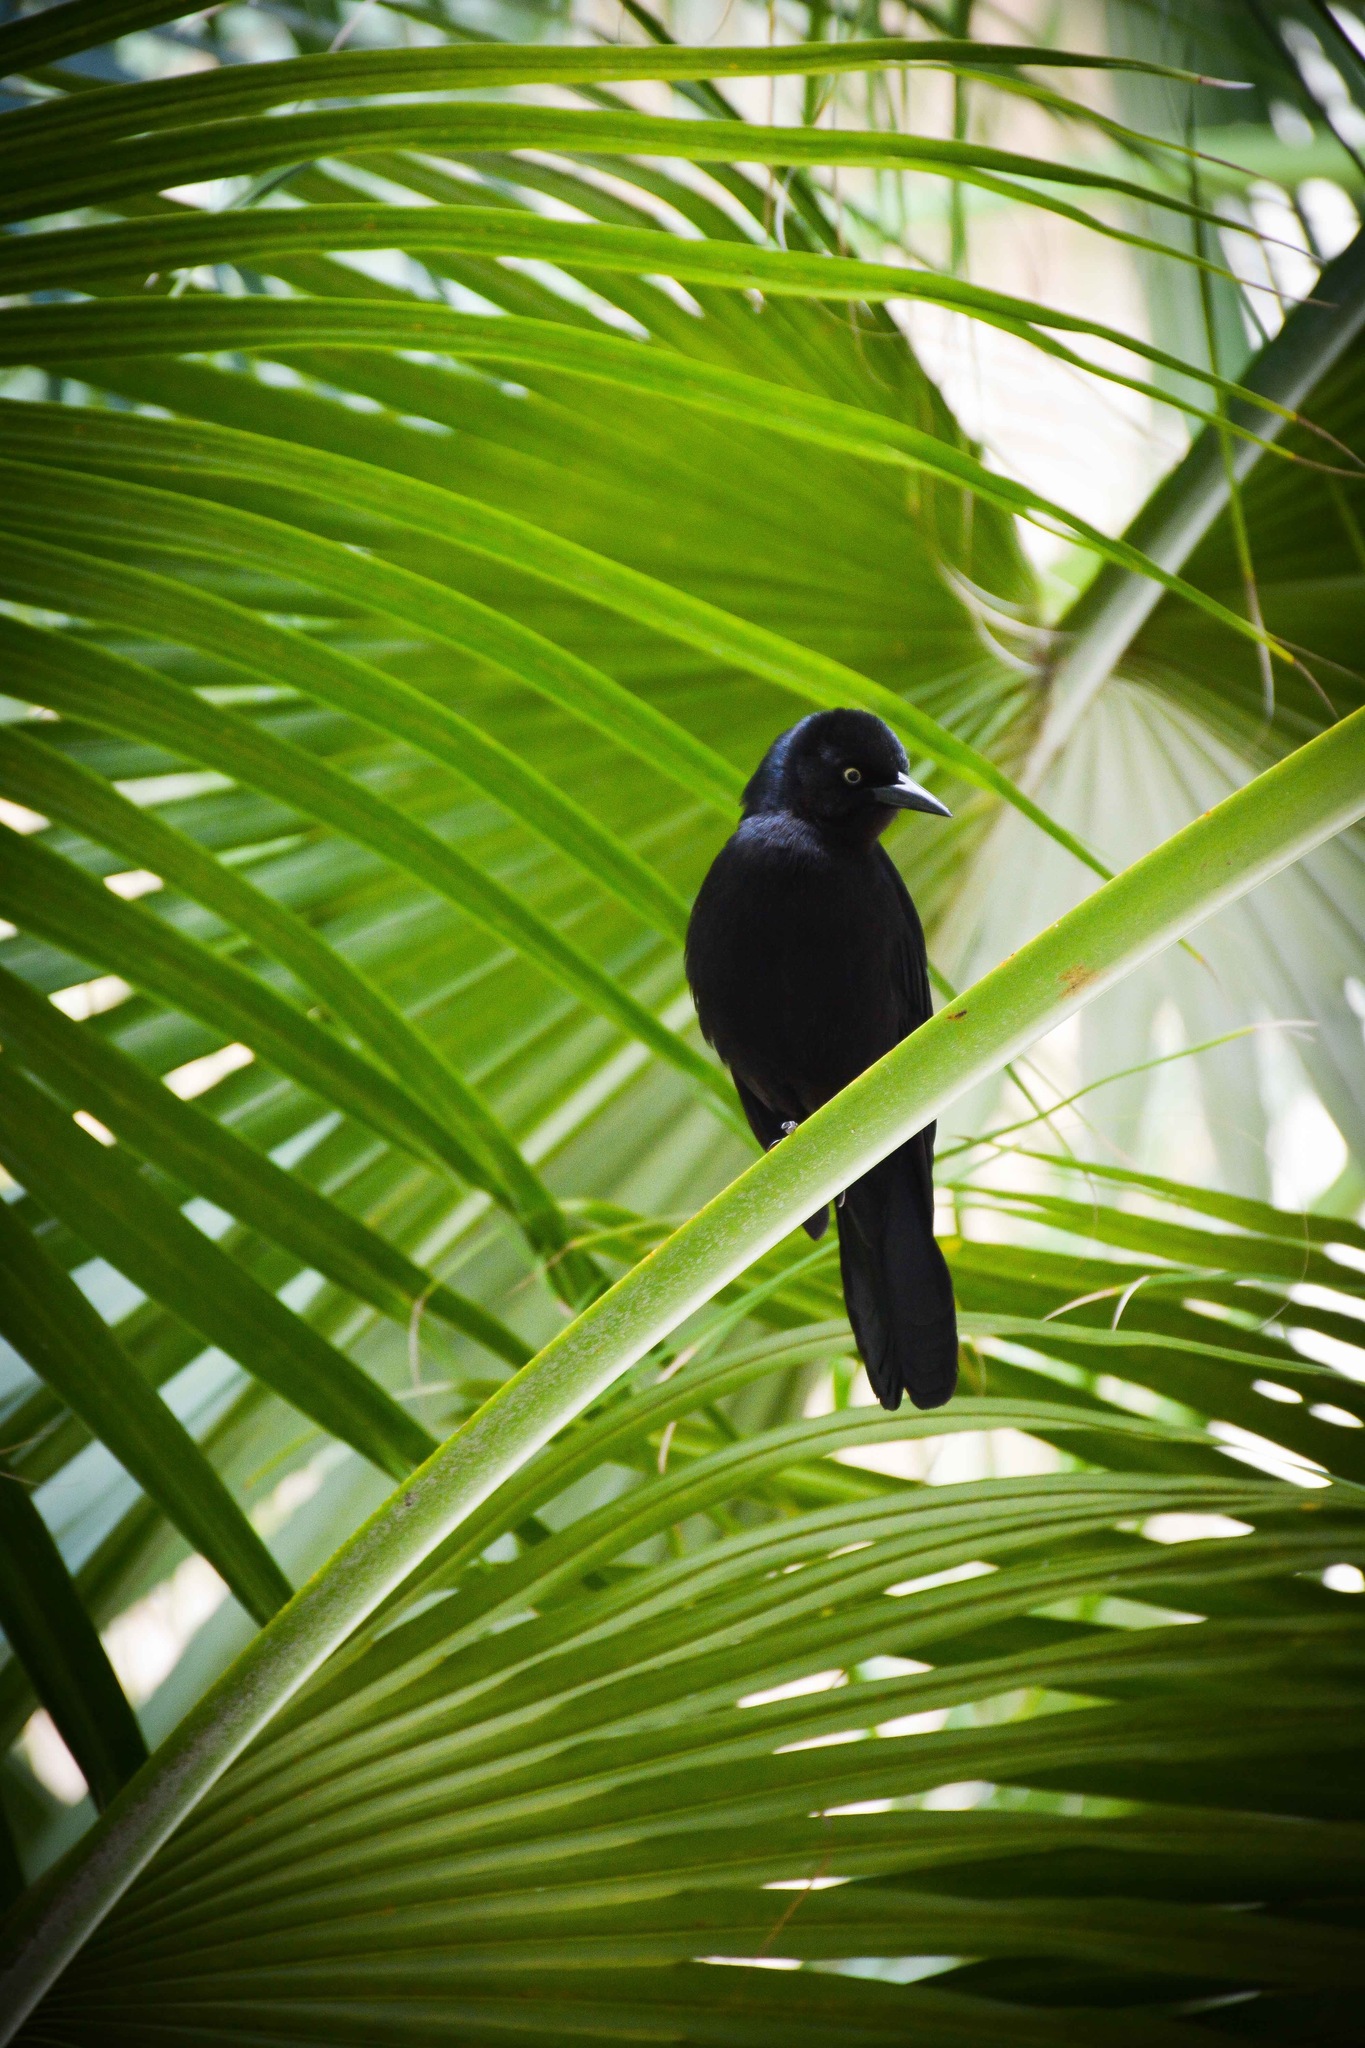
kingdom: Animalia
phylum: Chordata
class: Aves
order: Passeriformes
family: Icteridae
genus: Quiscalus
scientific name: Quiscalus niger
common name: Greater antillean grackle
